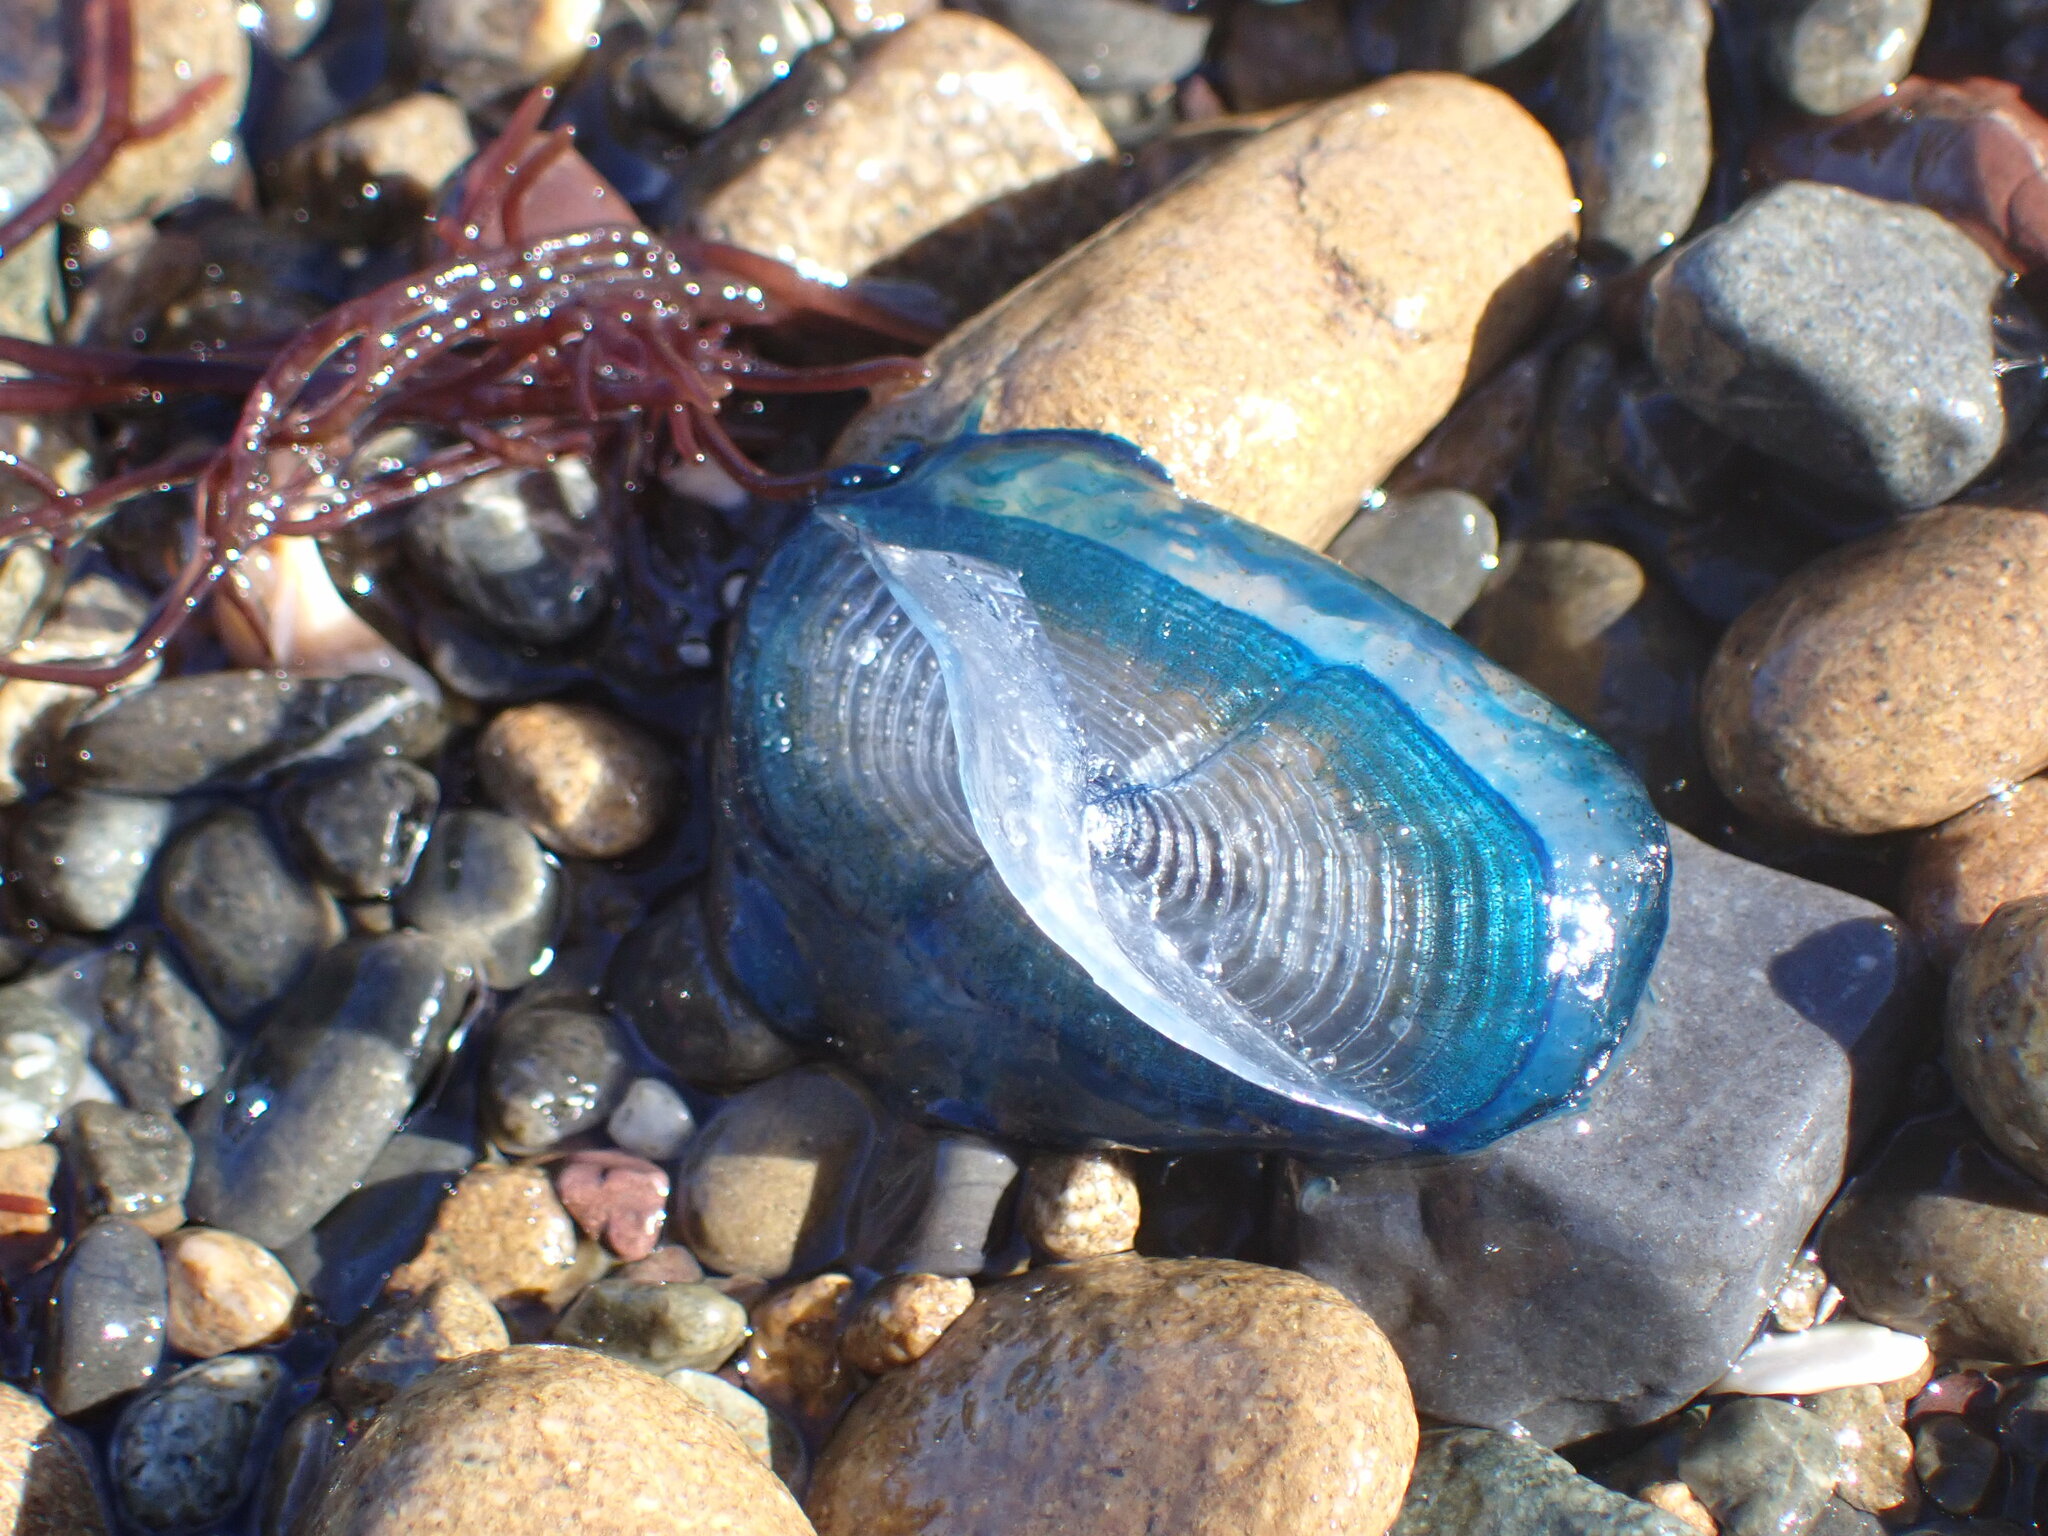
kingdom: Animalia
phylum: Cnidaria
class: Hydrozoa
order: Anthoathecata
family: Porpitidae
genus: Velella
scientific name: Velella velella
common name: By-the-wind-sailor
